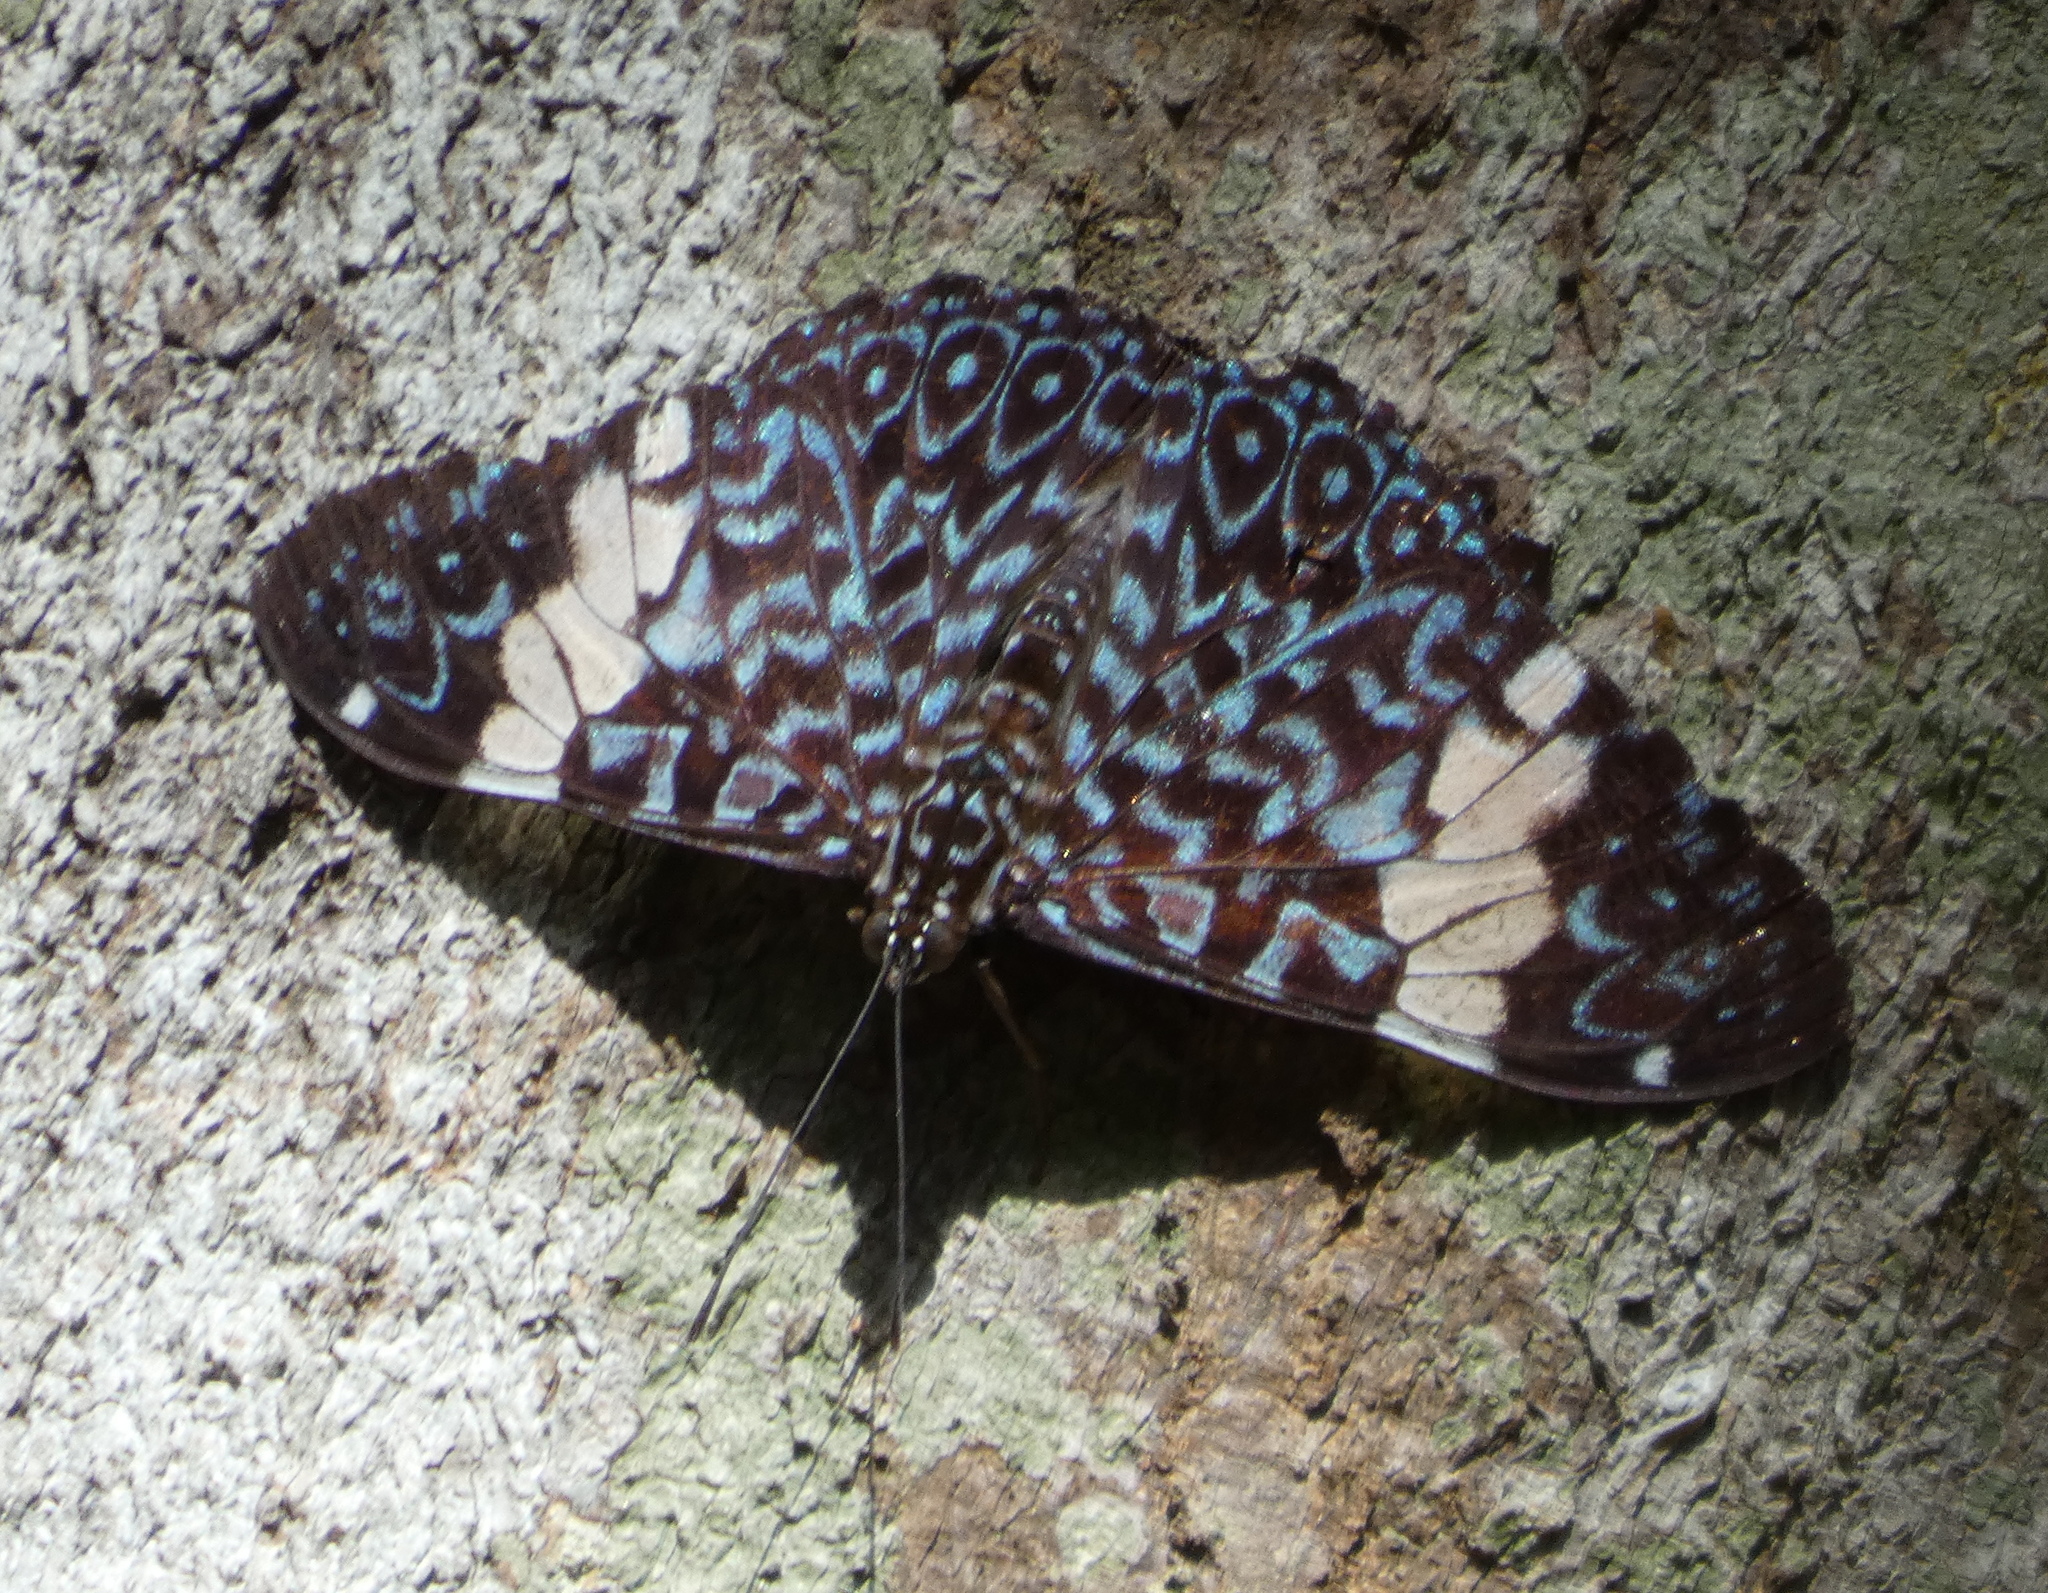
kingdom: Animalia
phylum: Arthropoda
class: Insecta
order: Lepidoptera
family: Nymphalidae
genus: Hamadryas
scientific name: Hamadryas amphinome
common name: Red cracker
